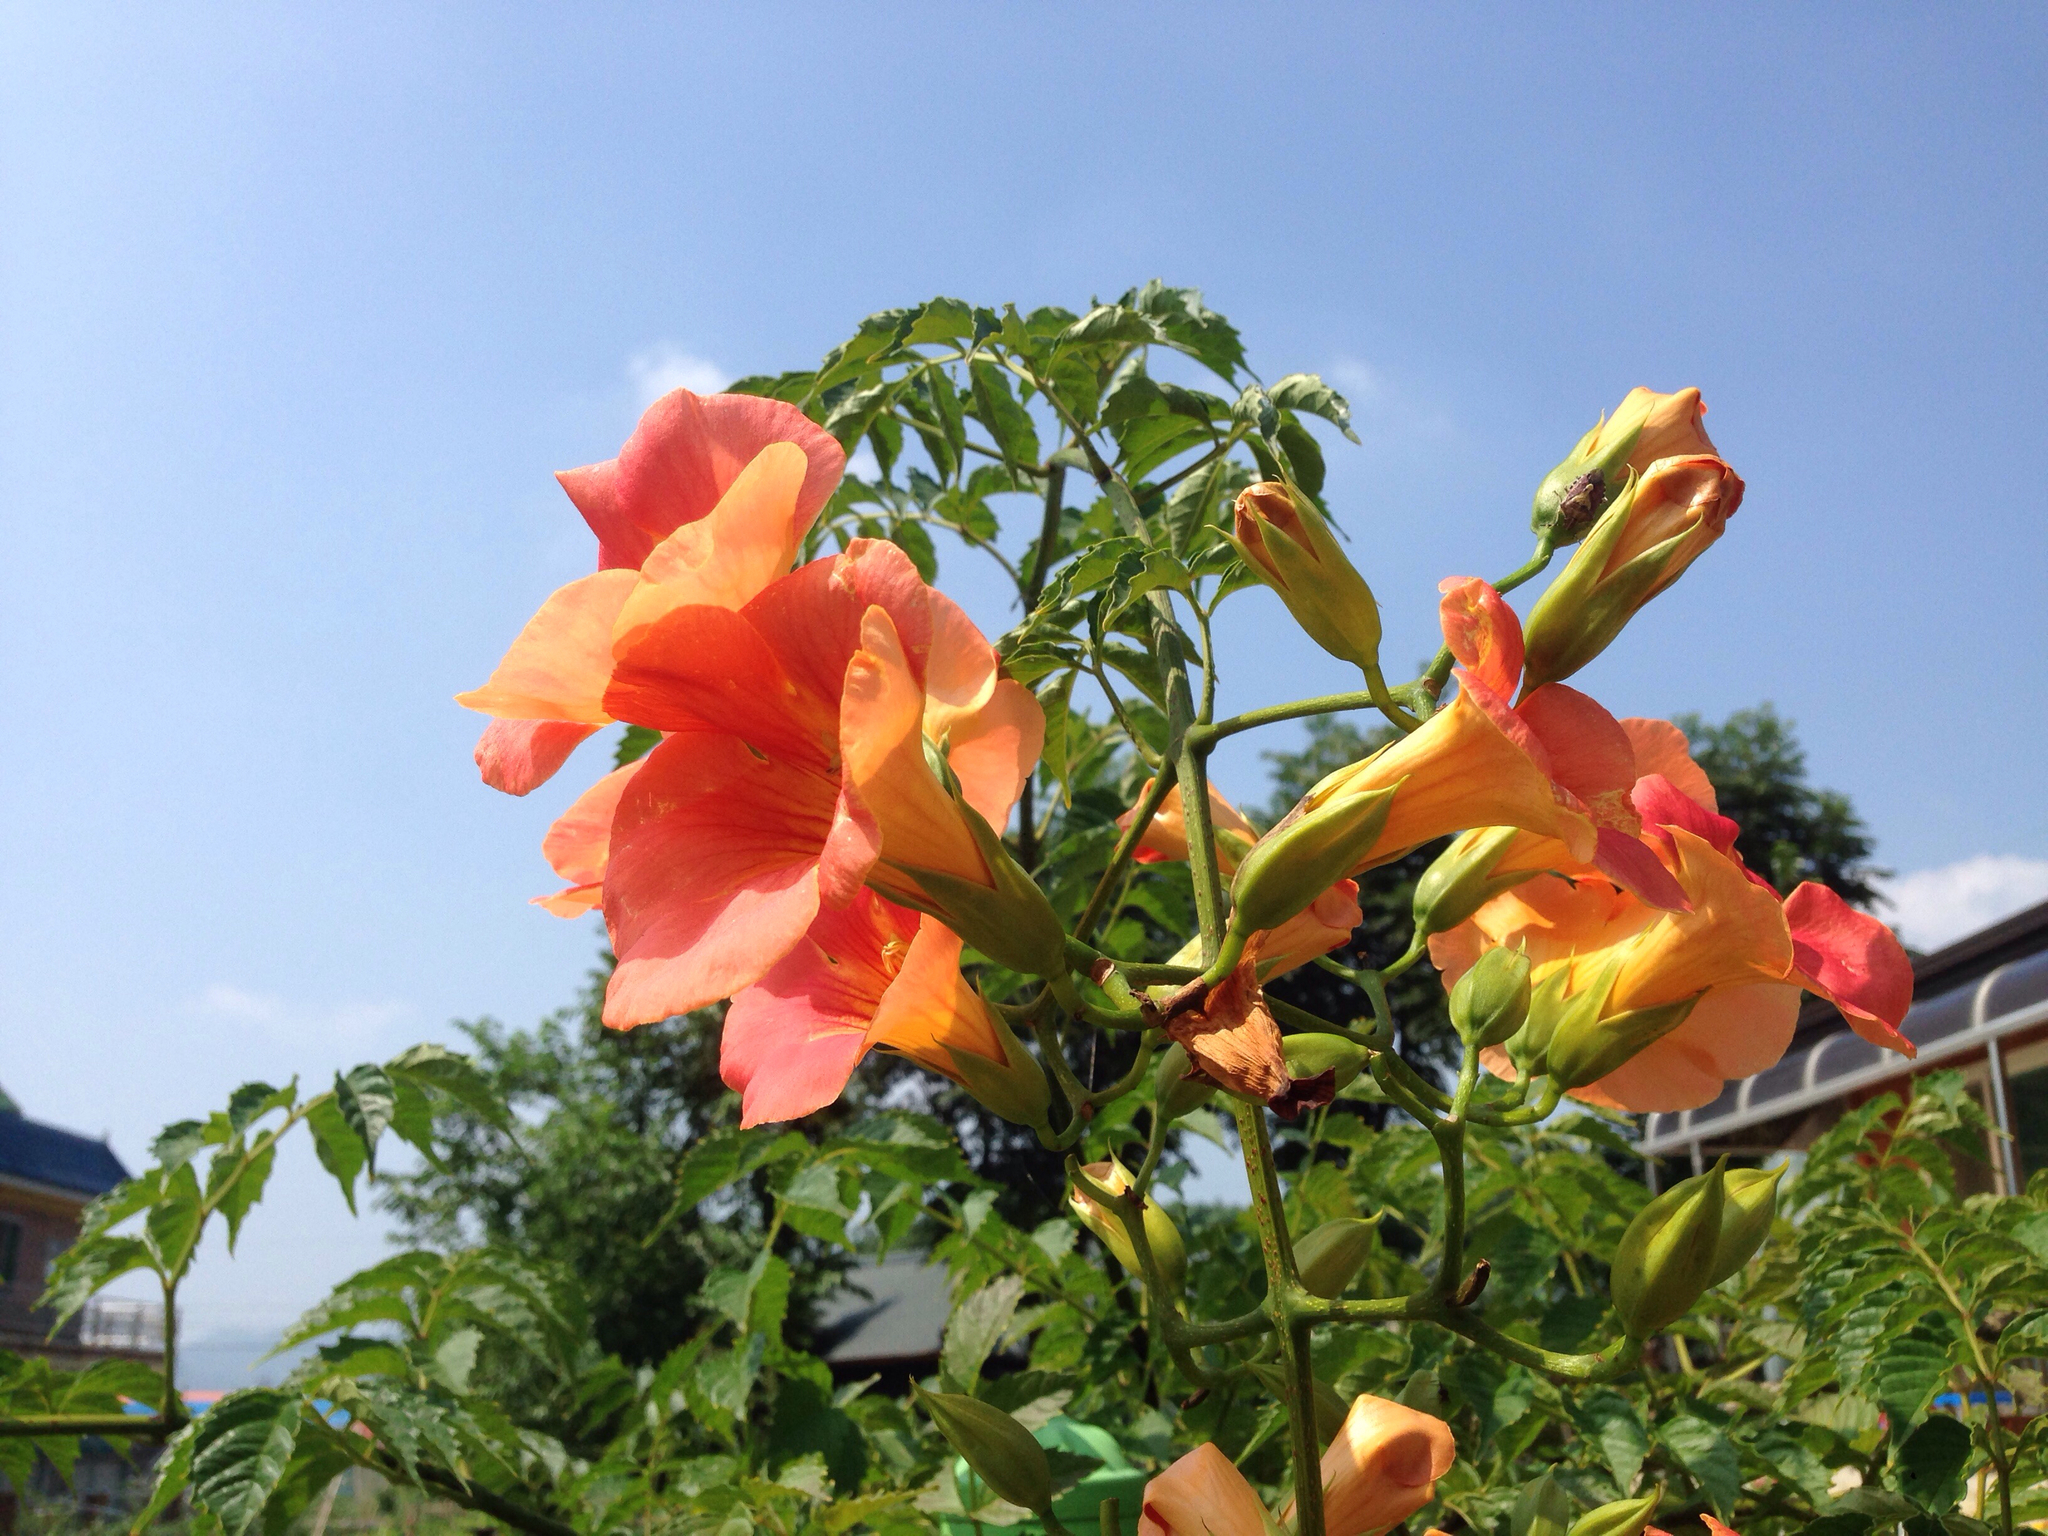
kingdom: Plantae
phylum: Tracheophyta
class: Magnoliopsida
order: Lamiales
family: Bignoniaceae
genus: Campsis
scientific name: Campsis grandiflora
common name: Chinese trumpet-creeper
